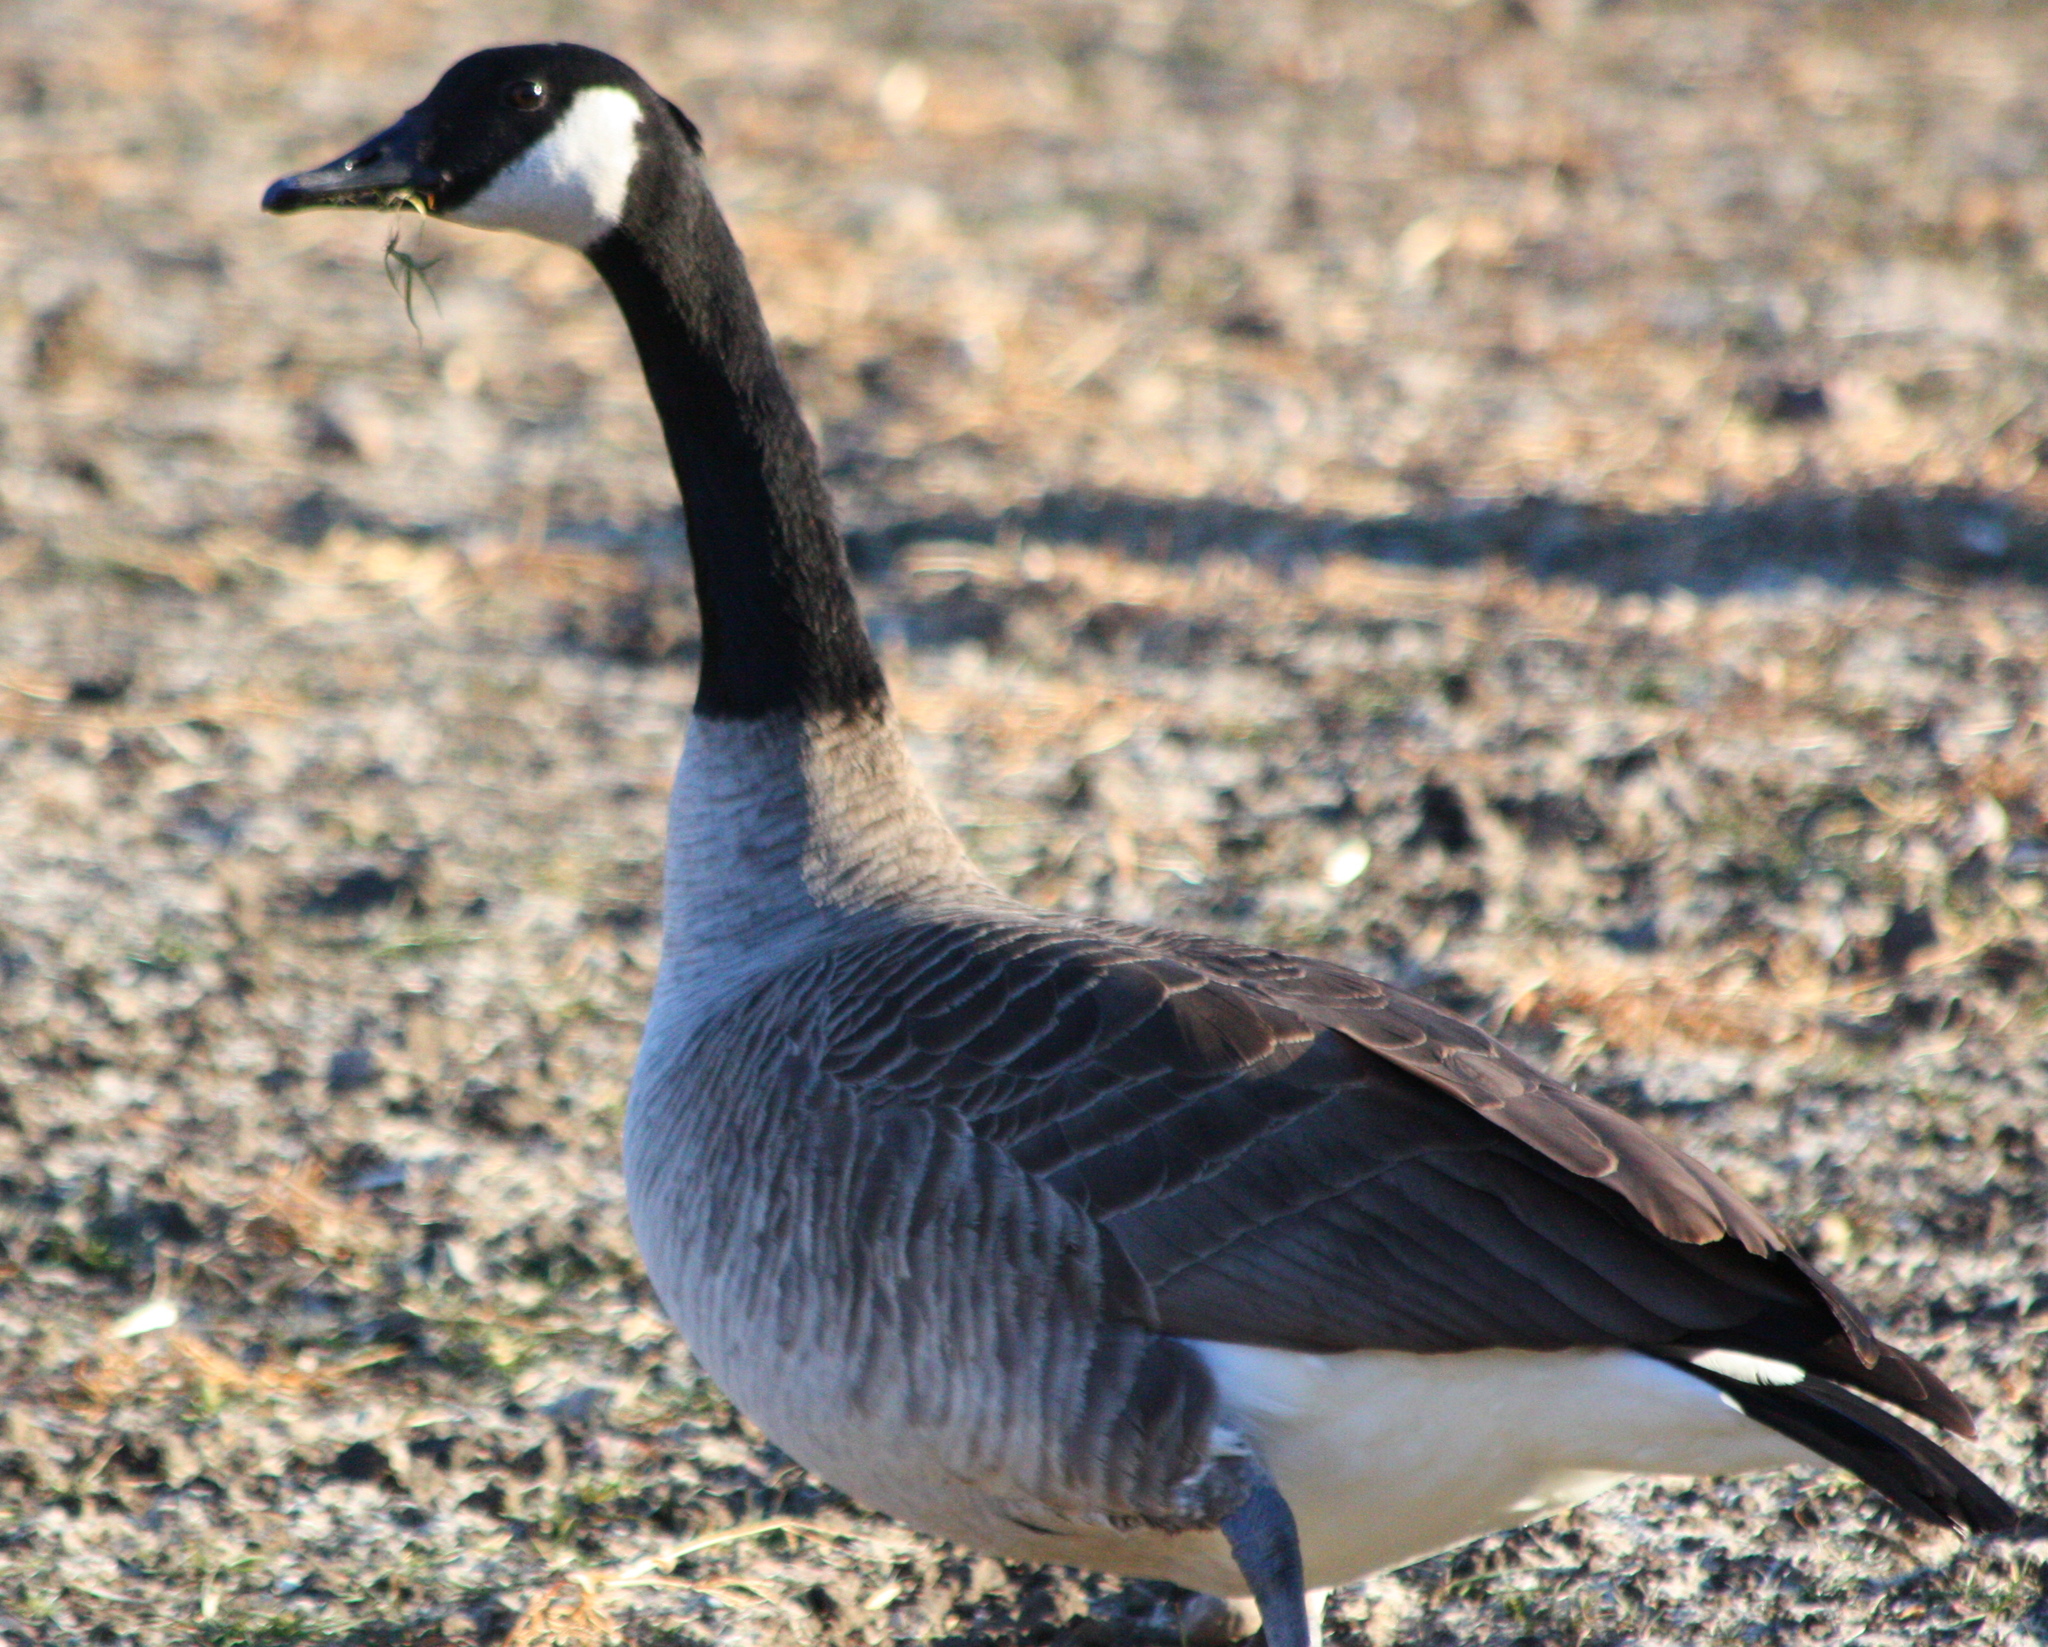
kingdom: Animalia
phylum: Chordata
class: Aves
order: Anseriformes
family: Anatidae
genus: Branta
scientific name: Branta canadensis
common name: Canada goose
